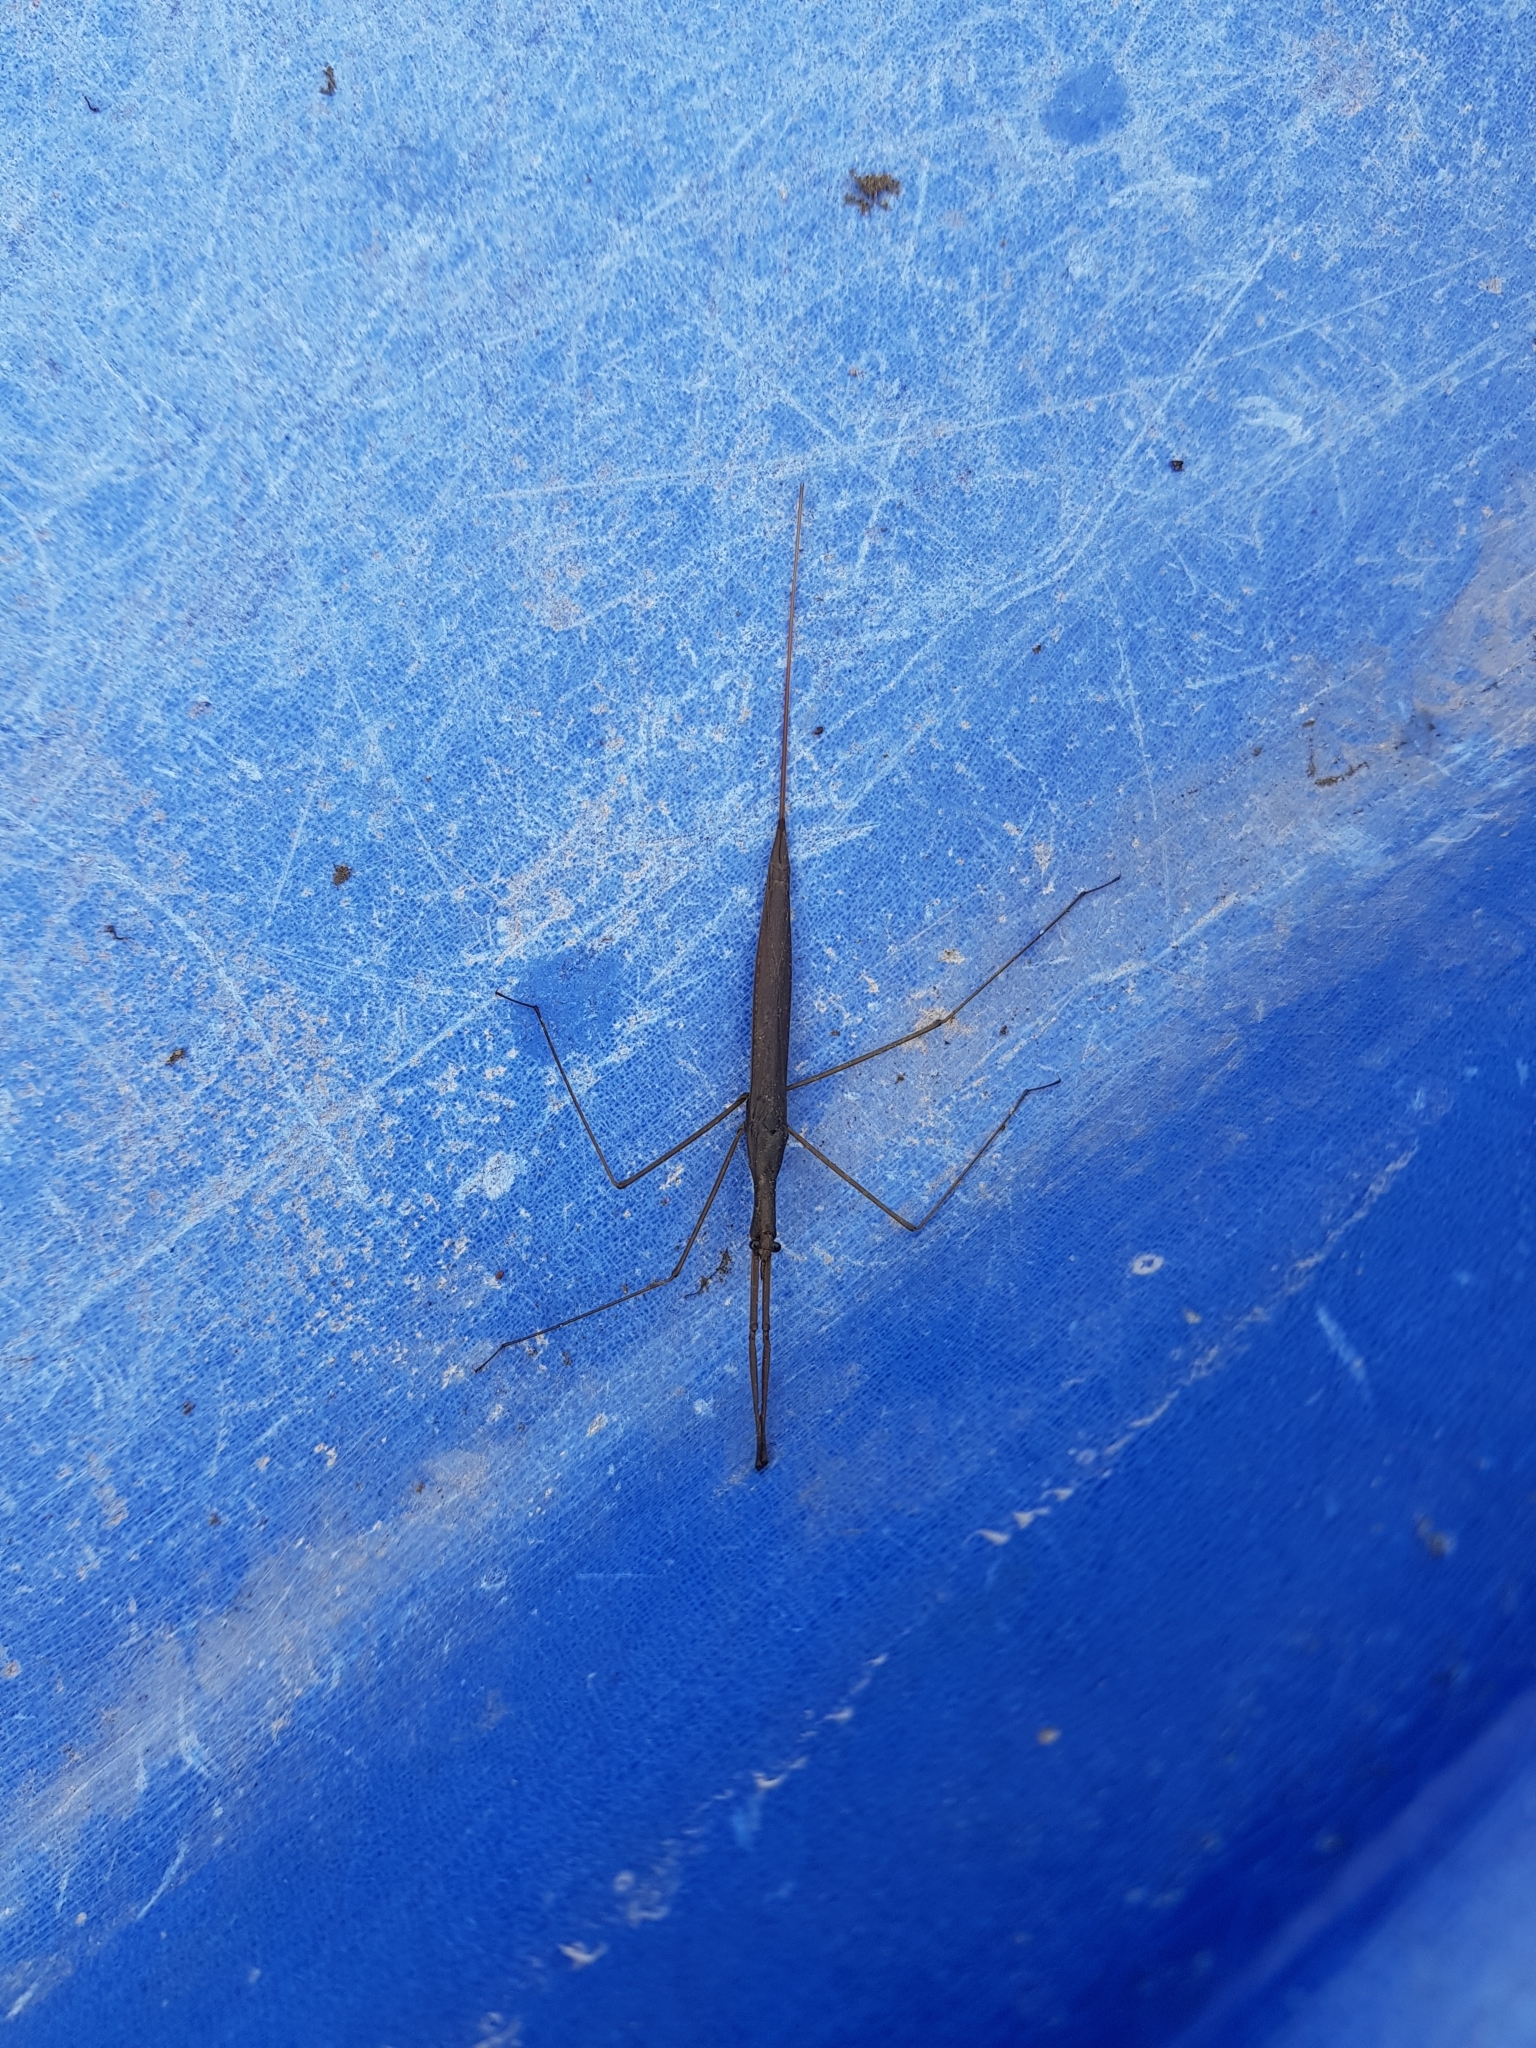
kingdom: Animalia
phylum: Arthropoda
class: Insecta
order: Hemiptera
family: Nepidae
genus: Ranatra
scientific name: Ranatra linearis
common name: Water stick insect
